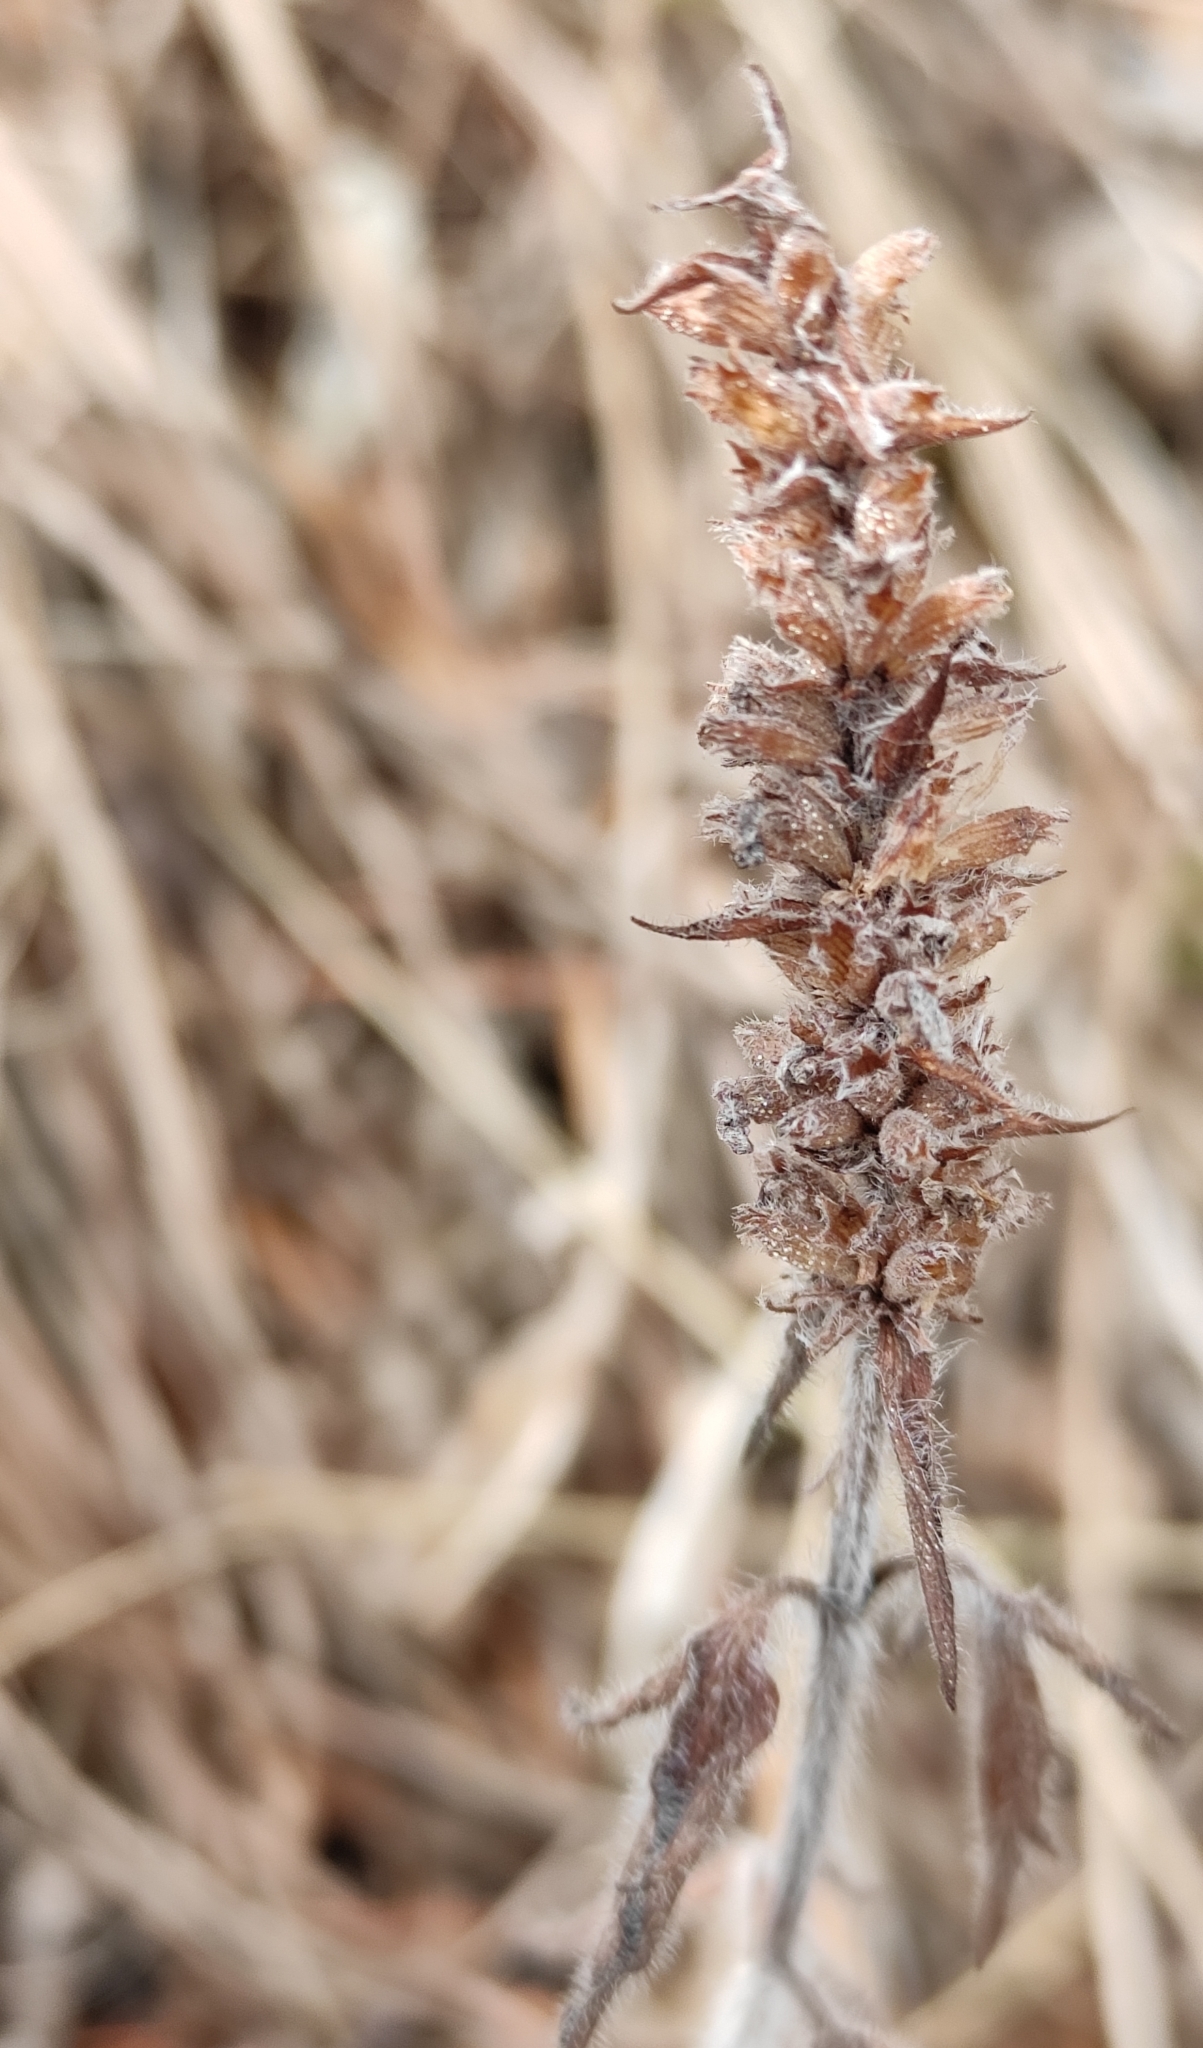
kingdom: Plantae
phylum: Tracheophyta
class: Magnoliopsida
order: Lamiales
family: Lamiaceae
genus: Nepeta
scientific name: Nepeta multifida
